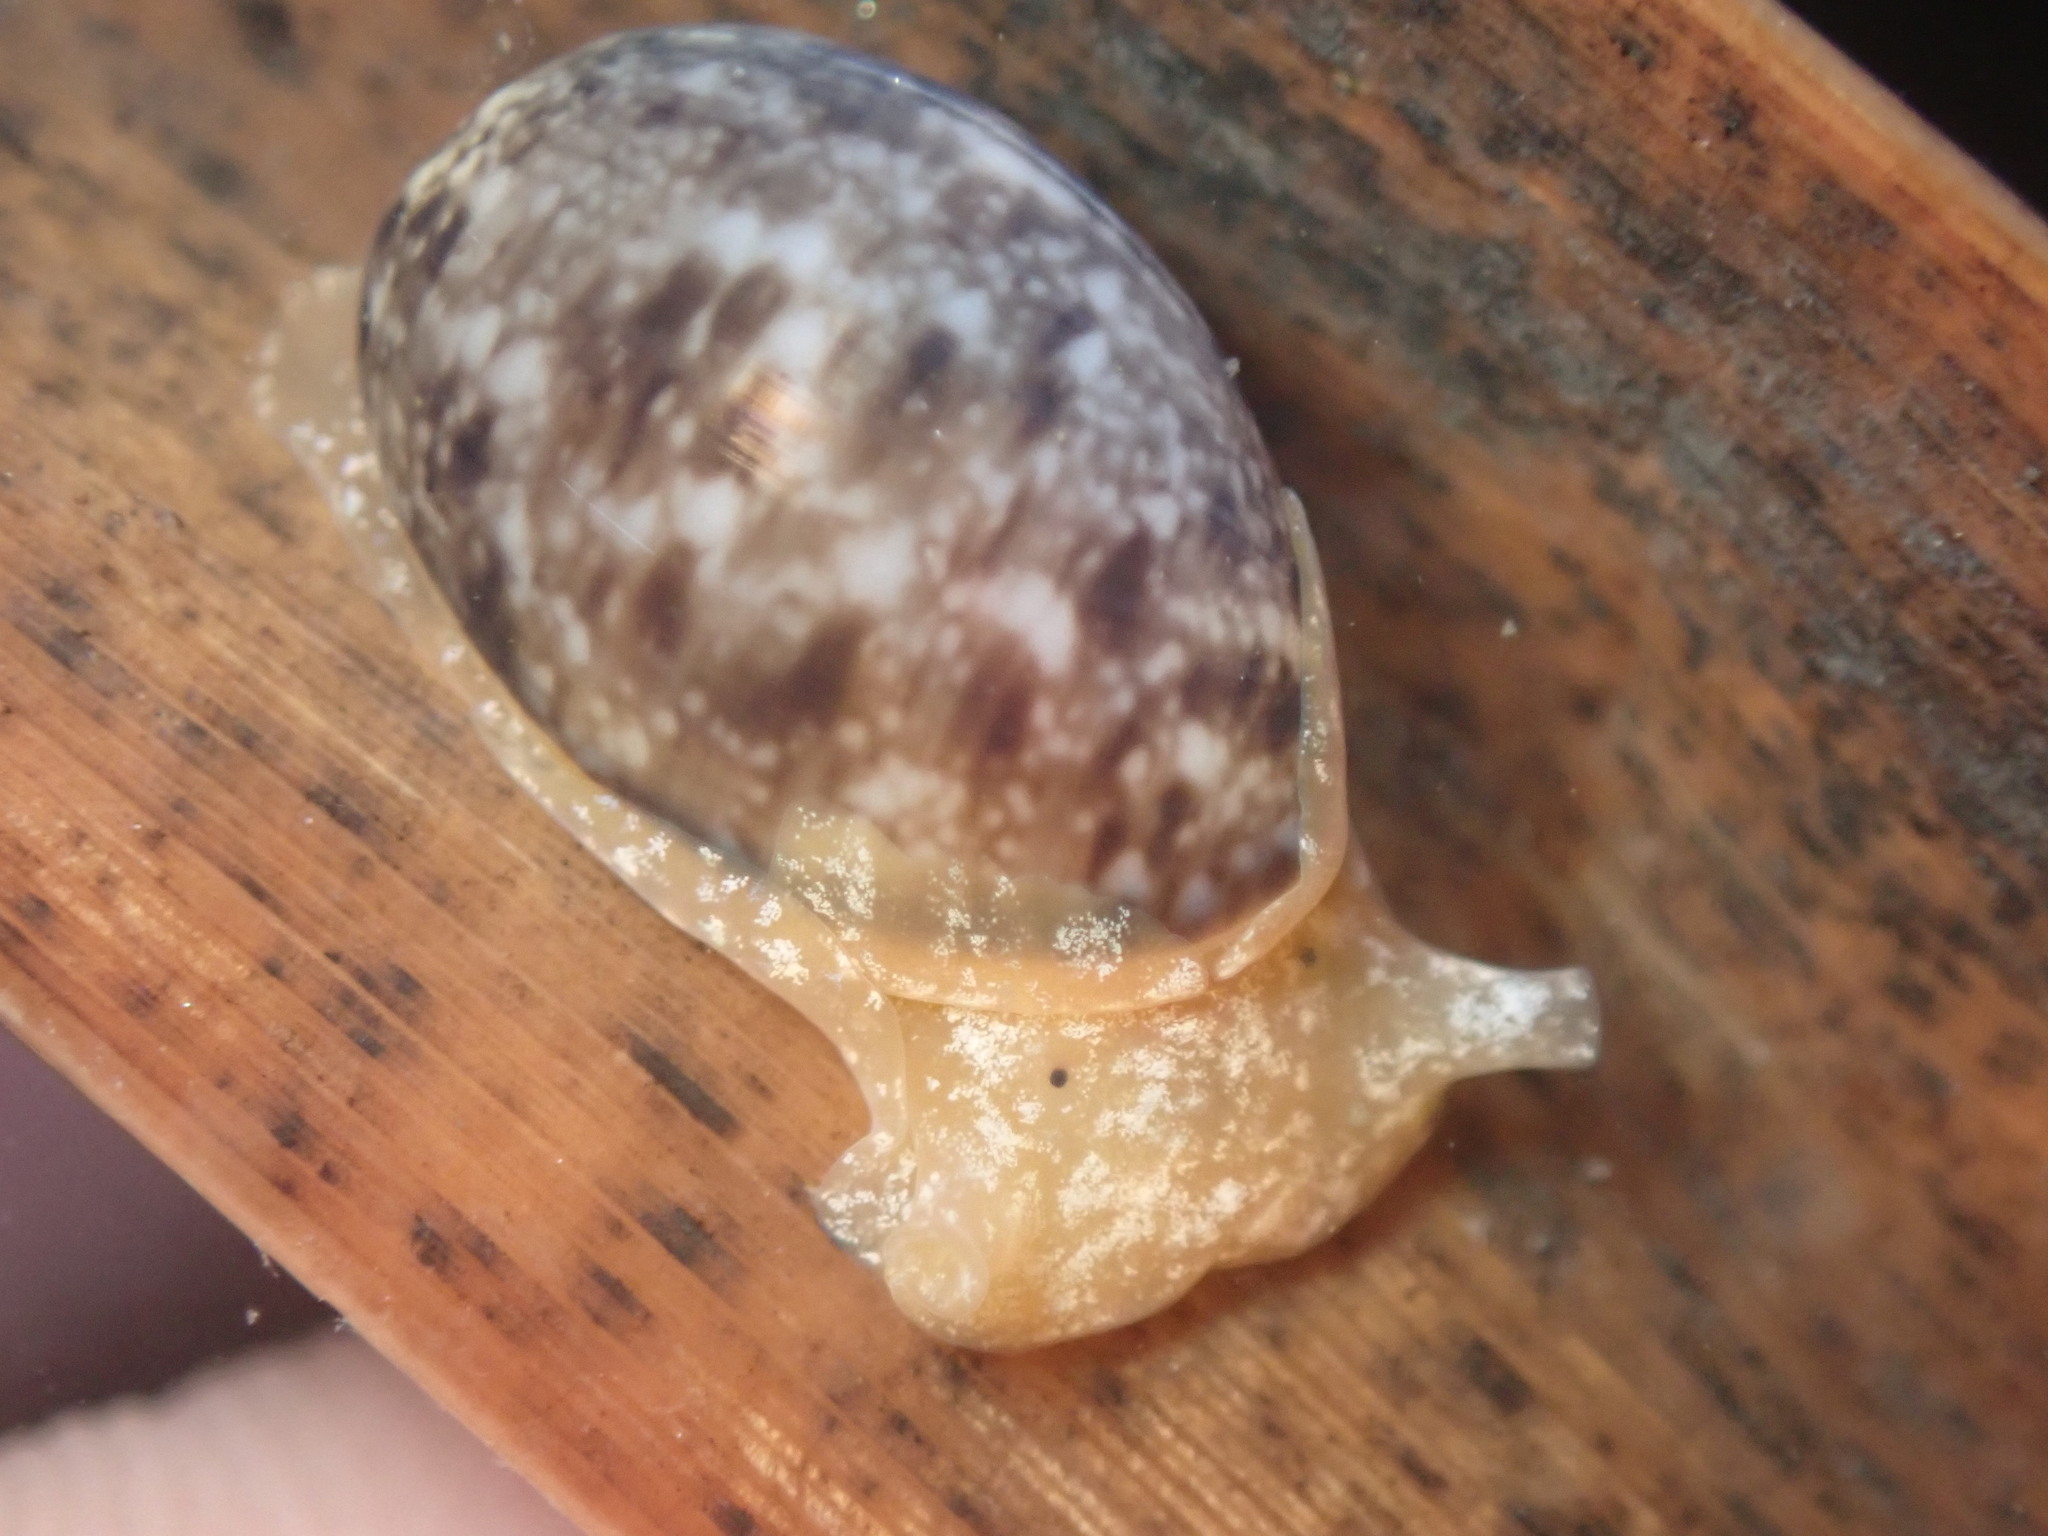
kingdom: Animalia
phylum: Mollusca
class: Gastropoda
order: Cephalaspidea
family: Bullidae
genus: Bulla
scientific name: Bulla gouldiana
